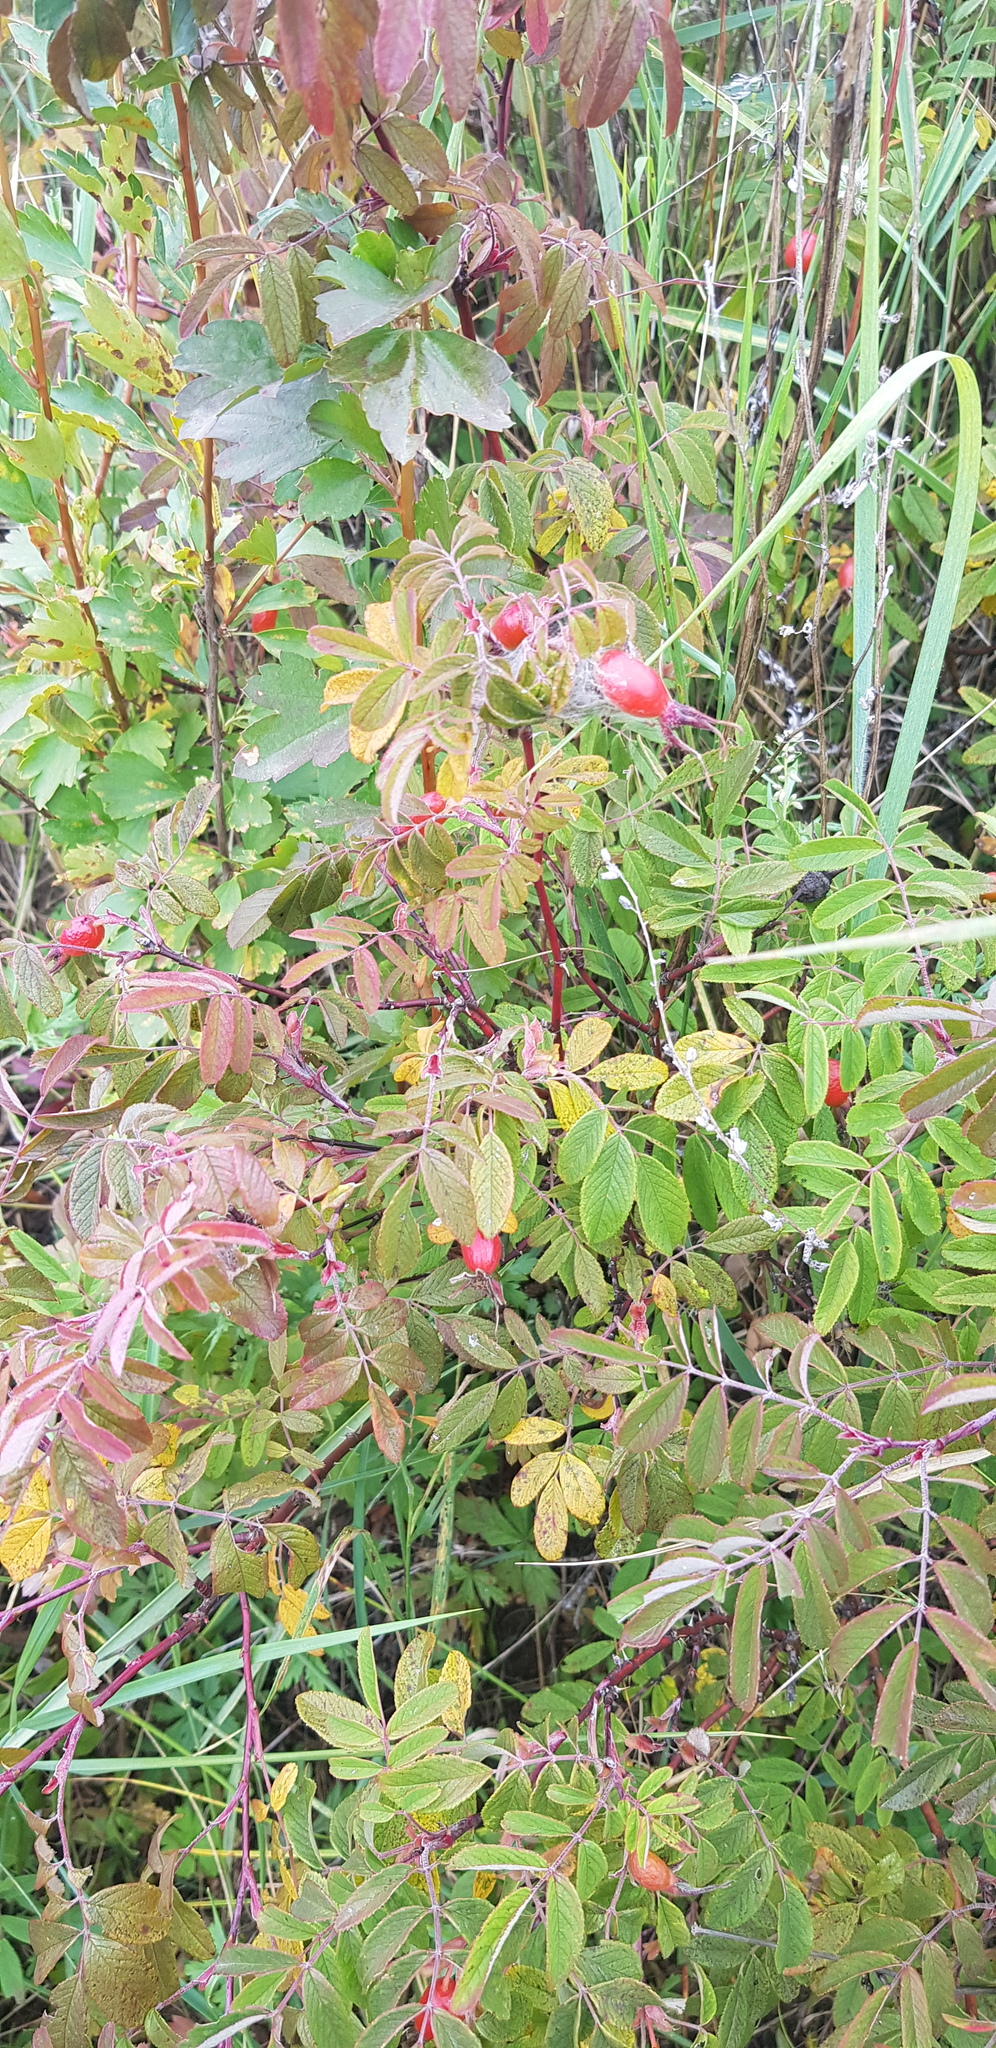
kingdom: Plantae
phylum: Tracheophyta
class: Magnoliopsida
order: Rosales
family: Rosaceae
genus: Rosa
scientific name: Rosa acicularis
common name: Prickly rose
